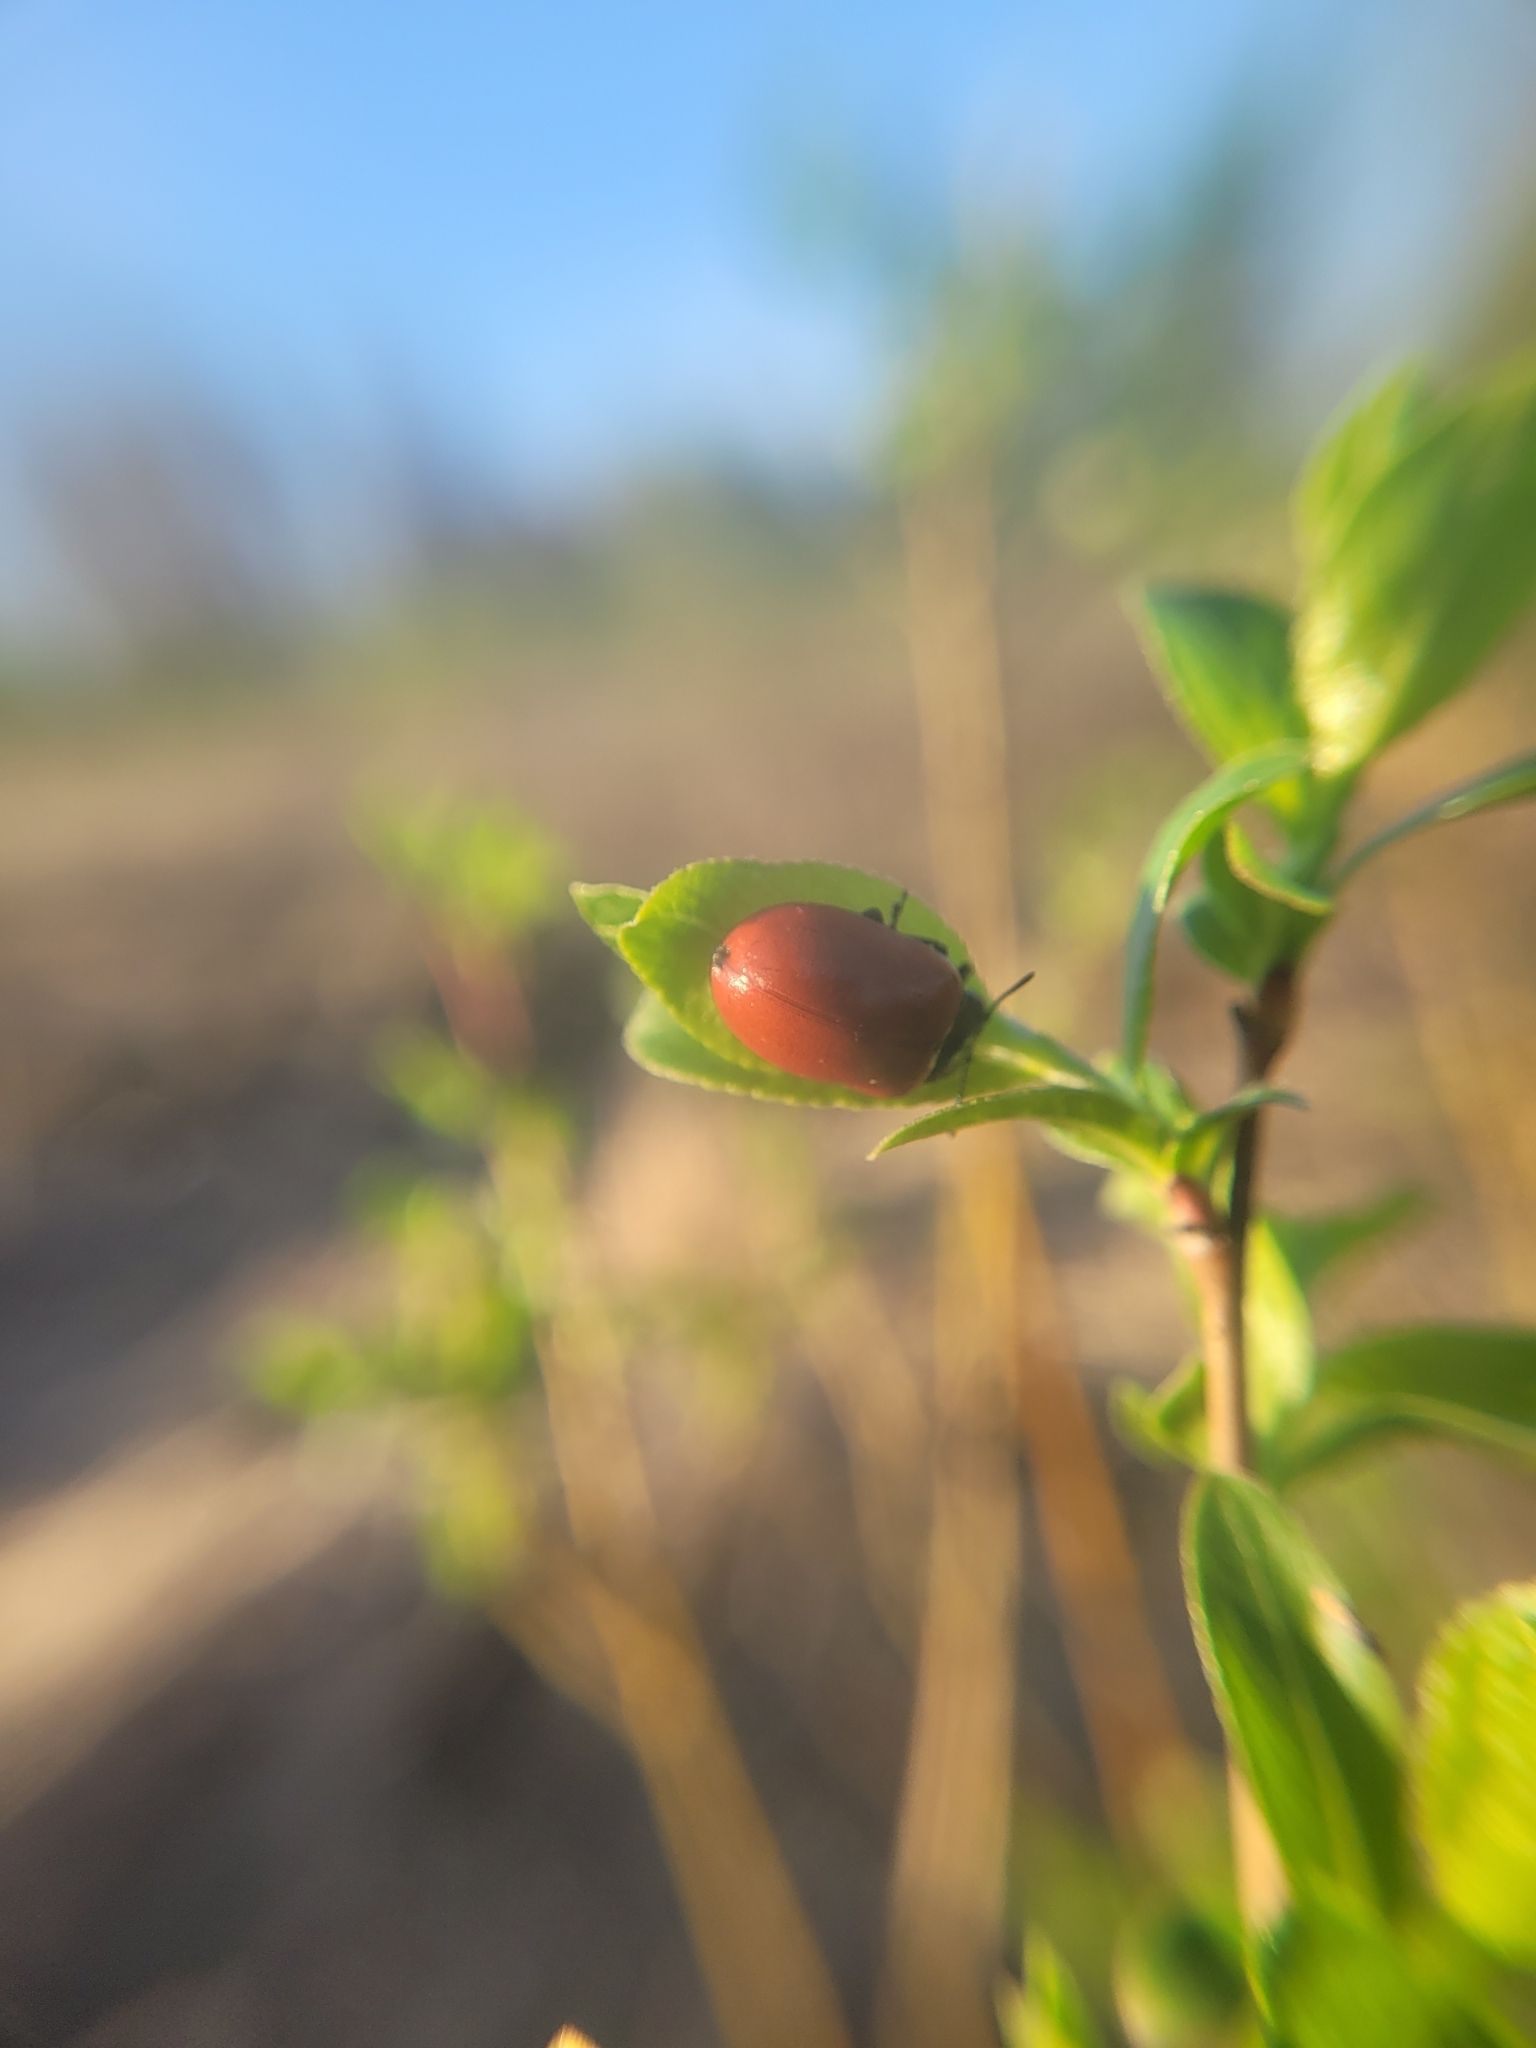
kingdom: Animalia
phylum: Arthropoda
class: Insecta
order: Coleoptera
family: Chrysomelidae
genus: Chrysomela
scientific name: Chrysomela populi
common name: Red poplar leaf beetle
